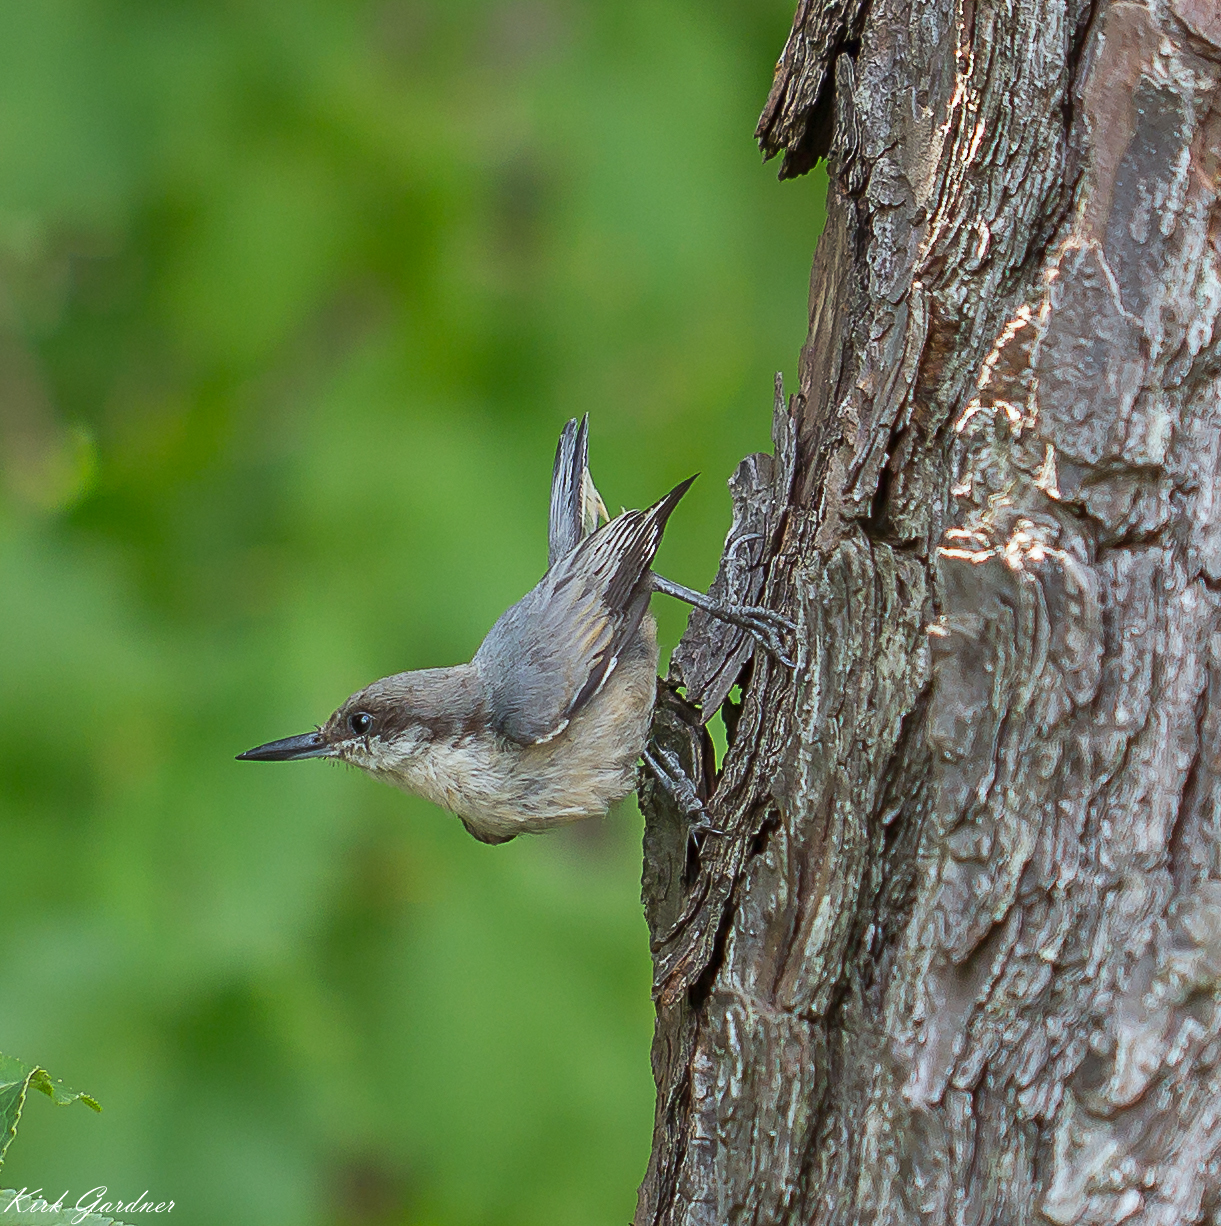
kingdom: Animalia
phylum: Chordata
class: Aves
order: Passeriformes
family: Sittidae
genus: Sitta
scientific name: Sitta pusilla
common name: Brown-headed nuthatch
